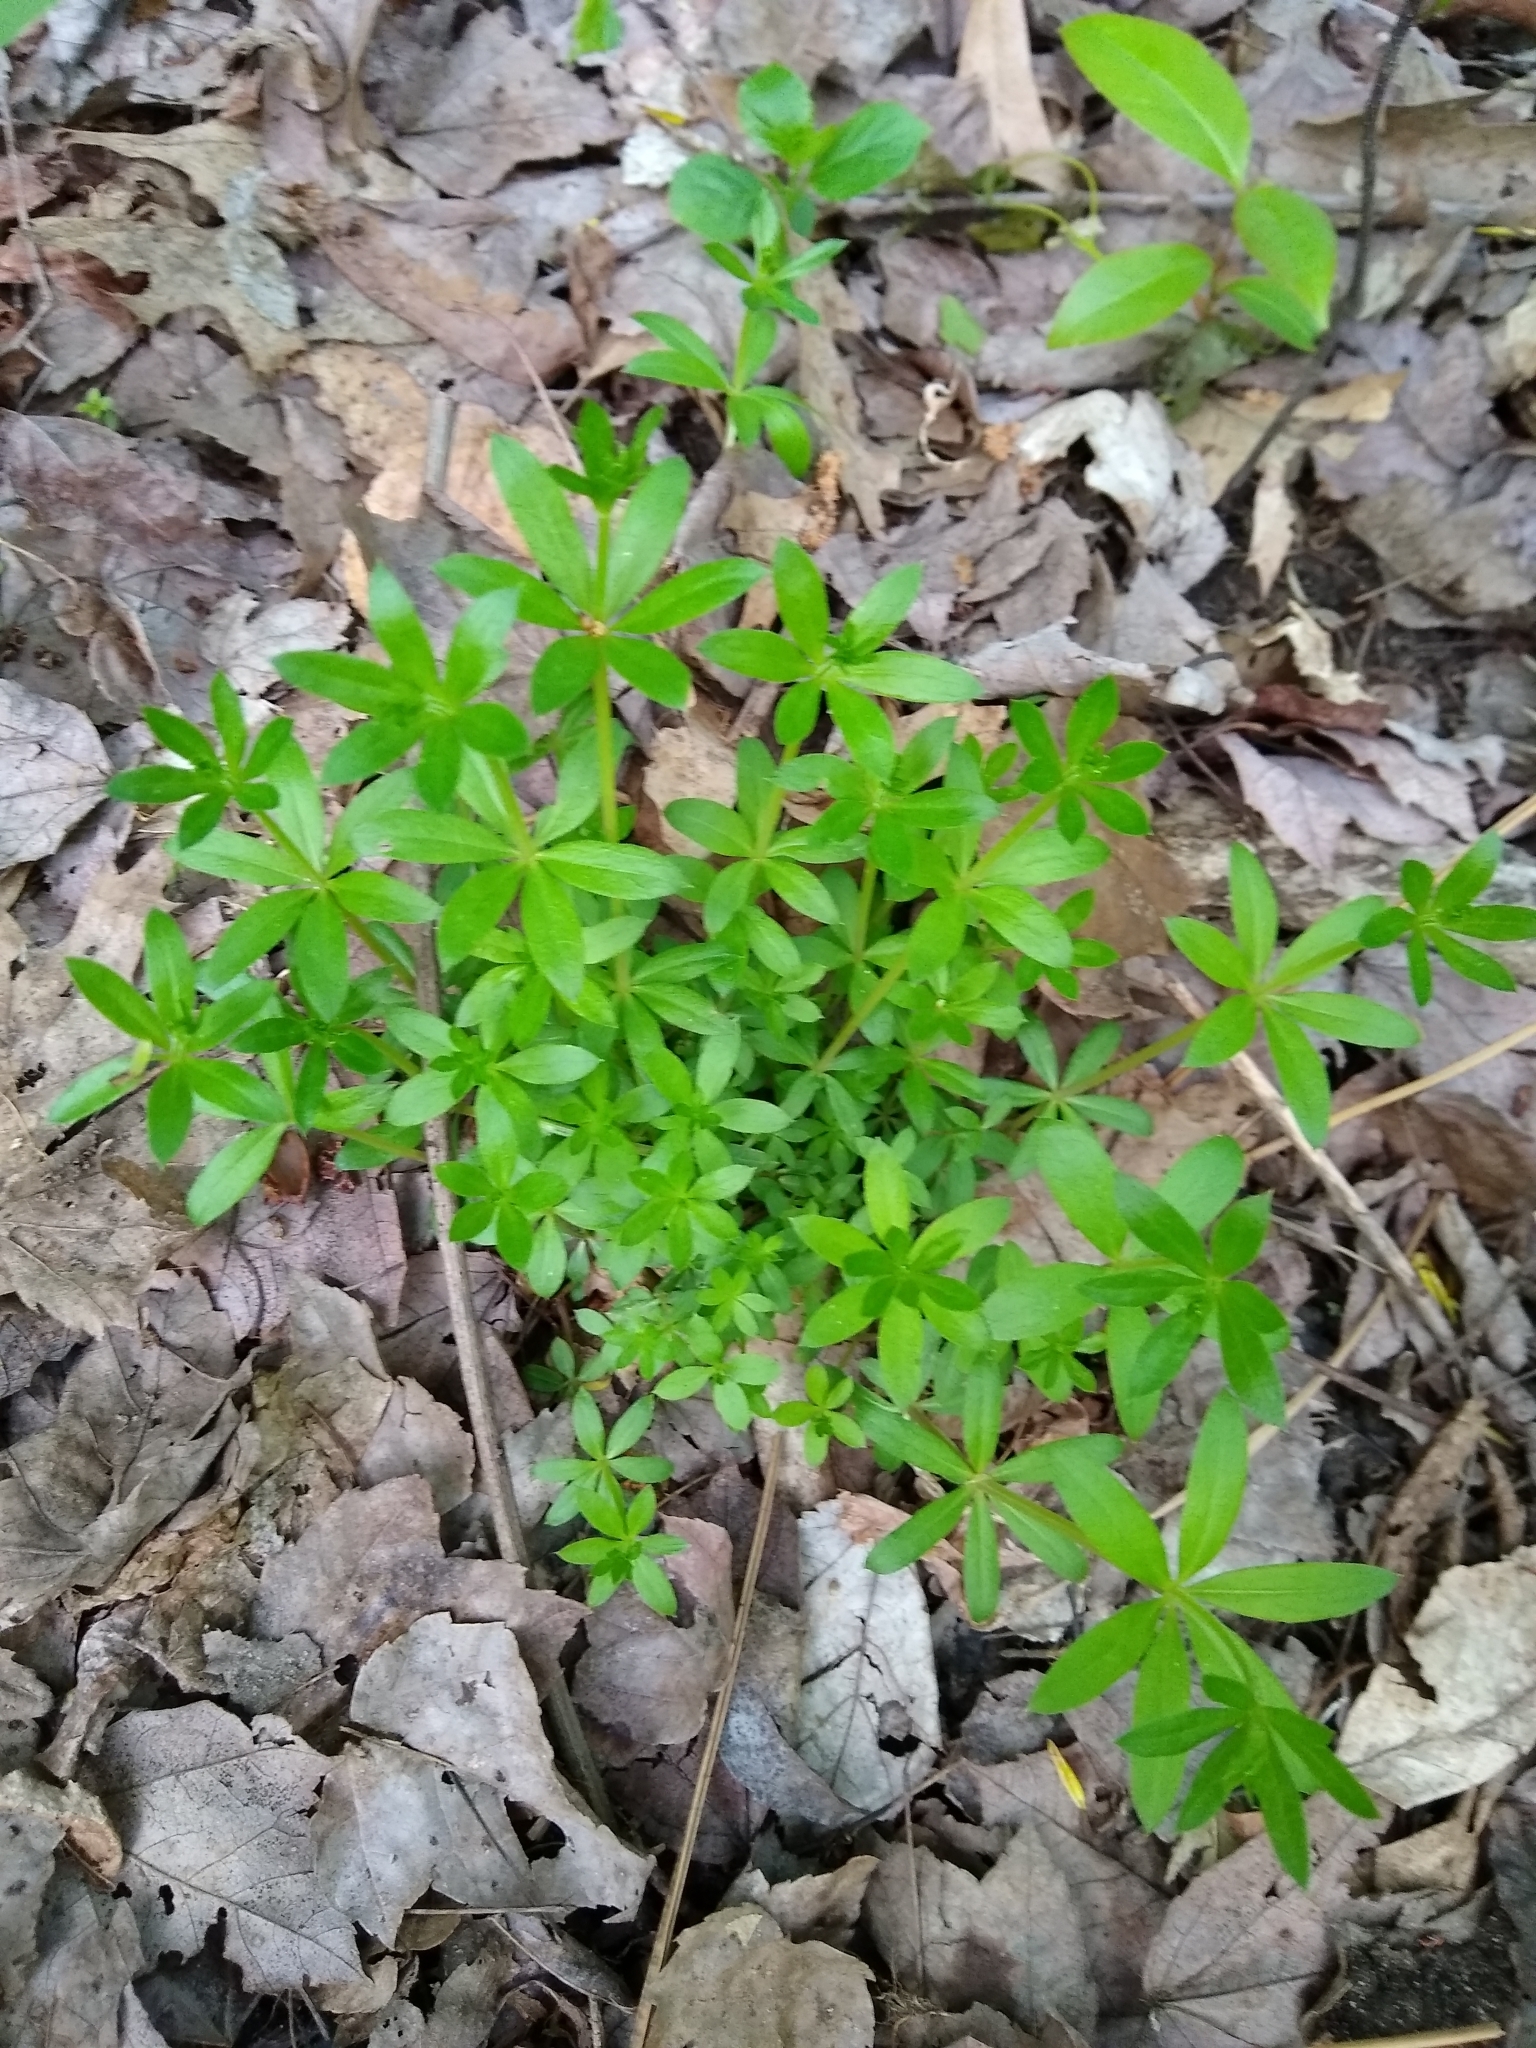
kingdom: Plantae
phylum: Tracheophyta
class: Magnoliopsida
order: Gentianales
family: Rubiaceae
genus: Galium
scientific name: Galium triflorum
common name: Fragrant bedstraw
